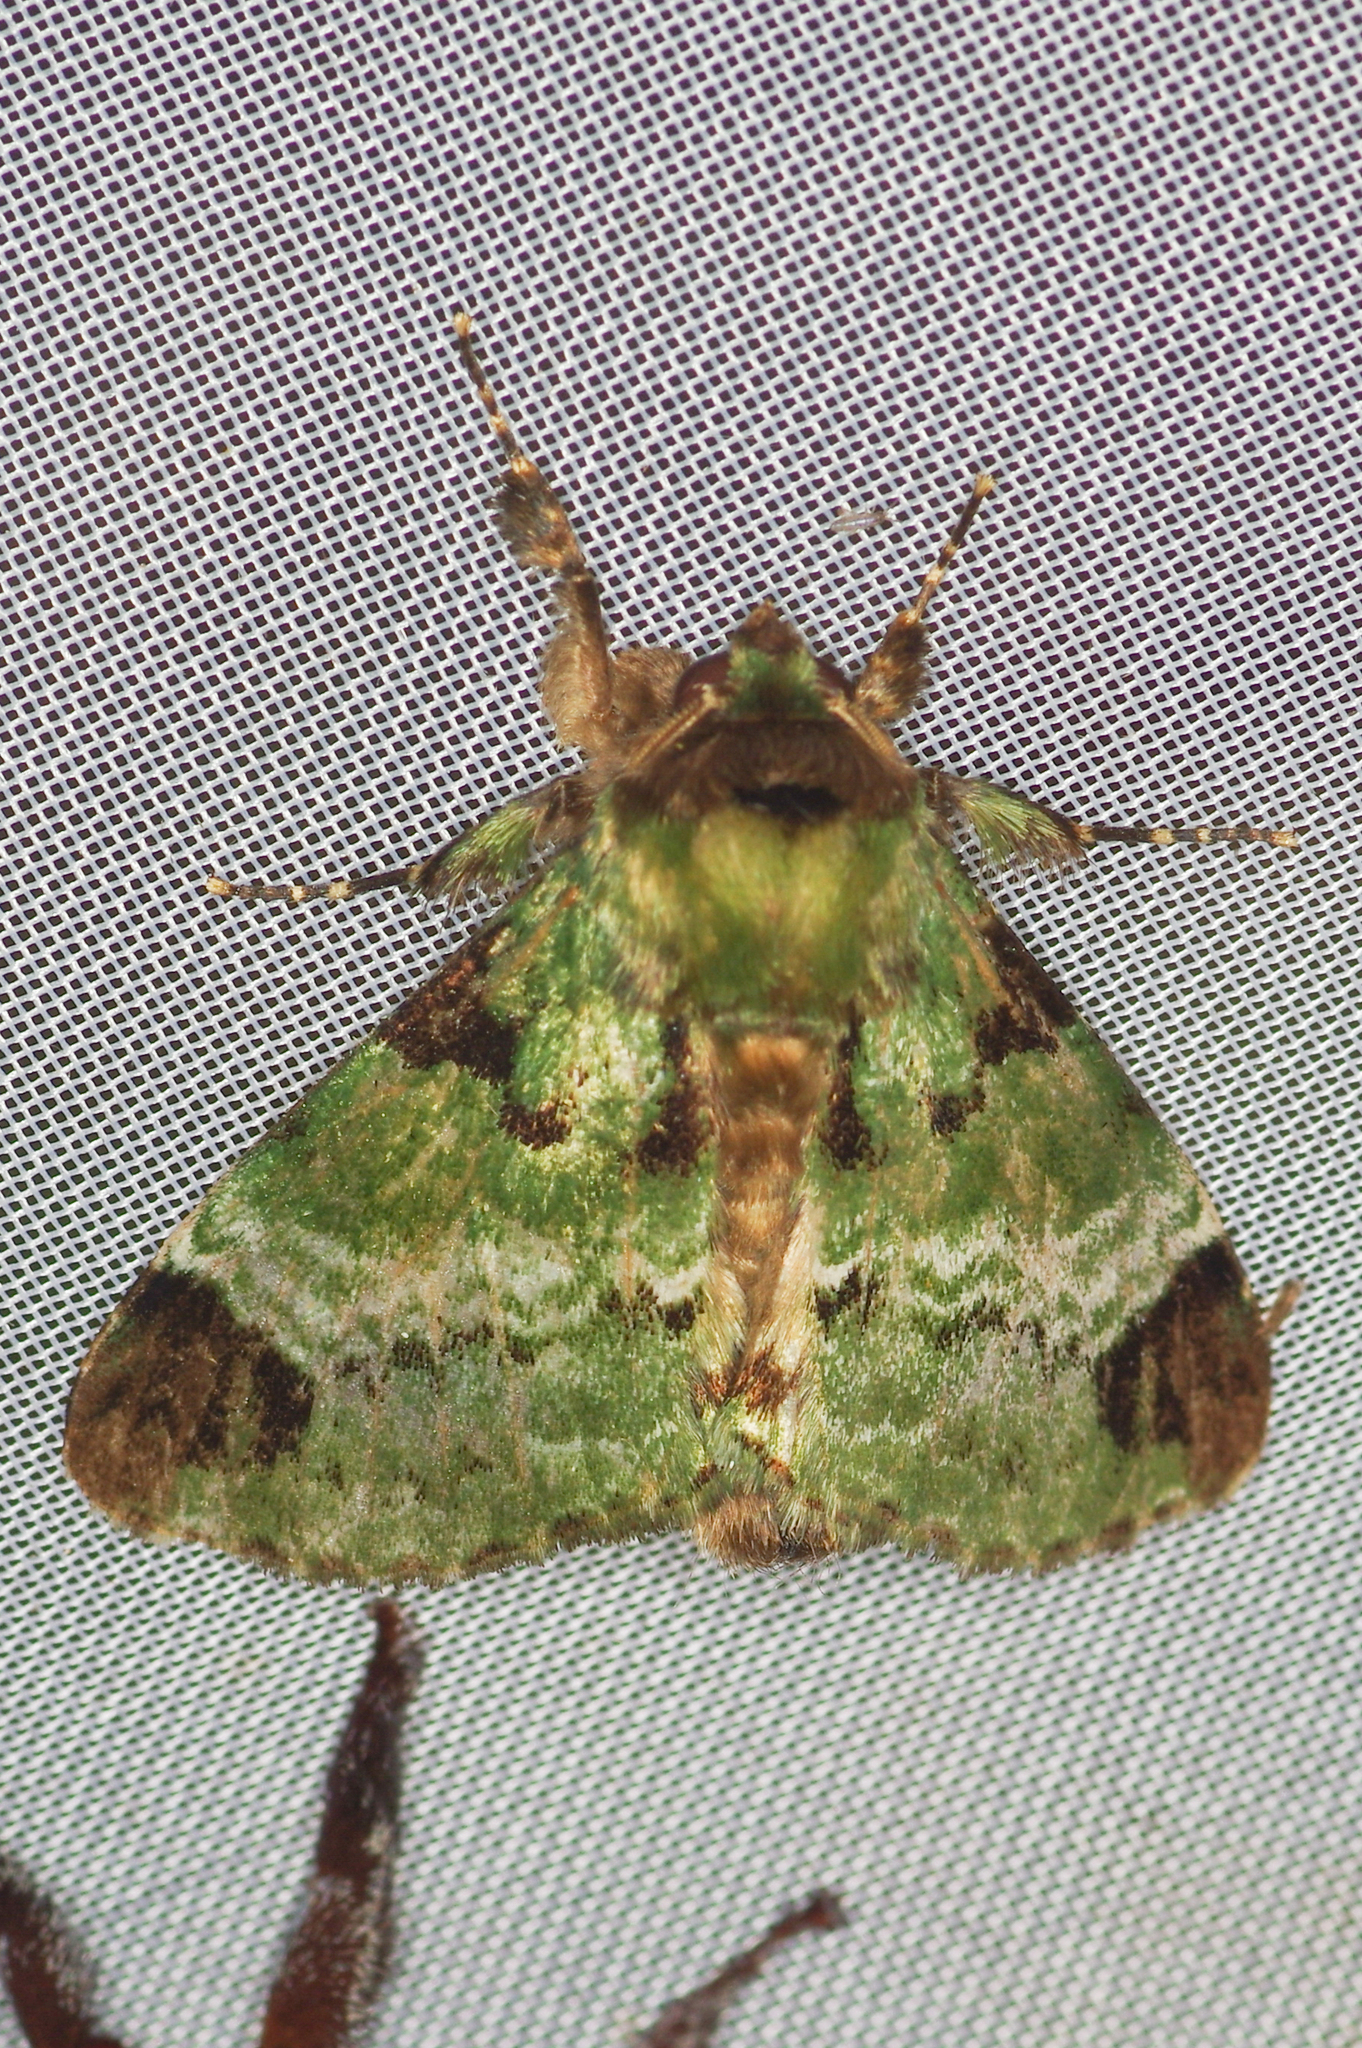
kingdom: Animalia
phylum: Arthropoda
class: Insecta
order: Lepidoptera
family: Erebidae
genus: Pachyplastis
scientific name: Pachyplastis apicalis
